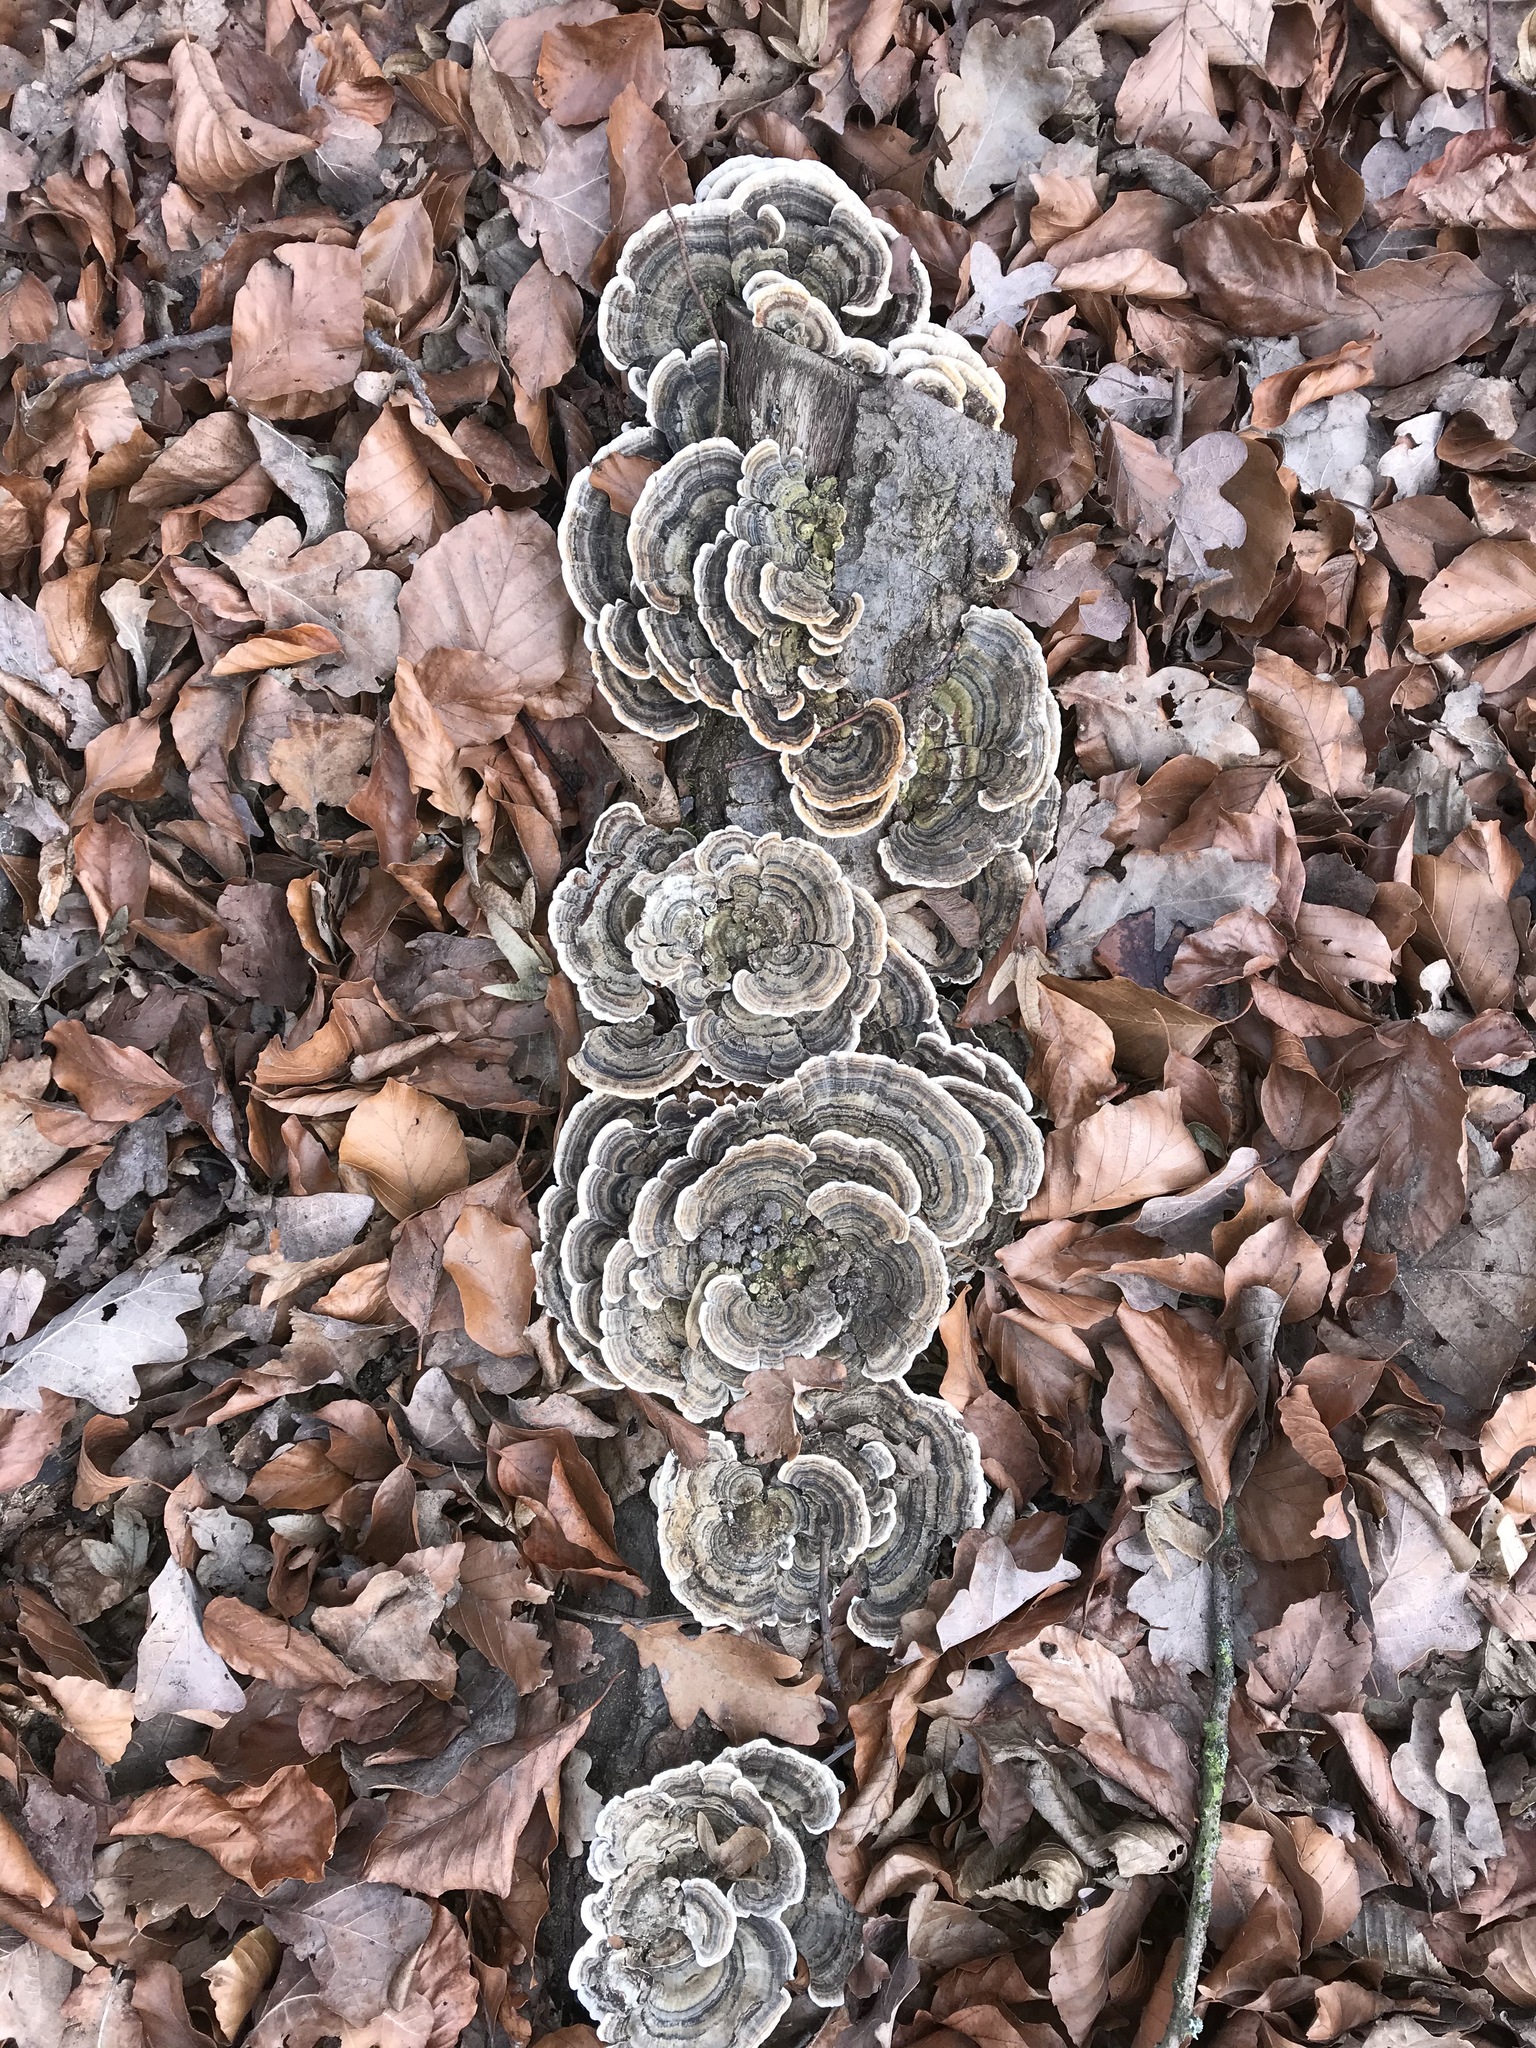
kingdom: Fungi
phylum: Basidiomycota
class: Agaricomycetes
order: Polyporales
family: Polyporaceae
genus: Trametes
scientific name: Trametes versicolor
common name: Turkeytail
